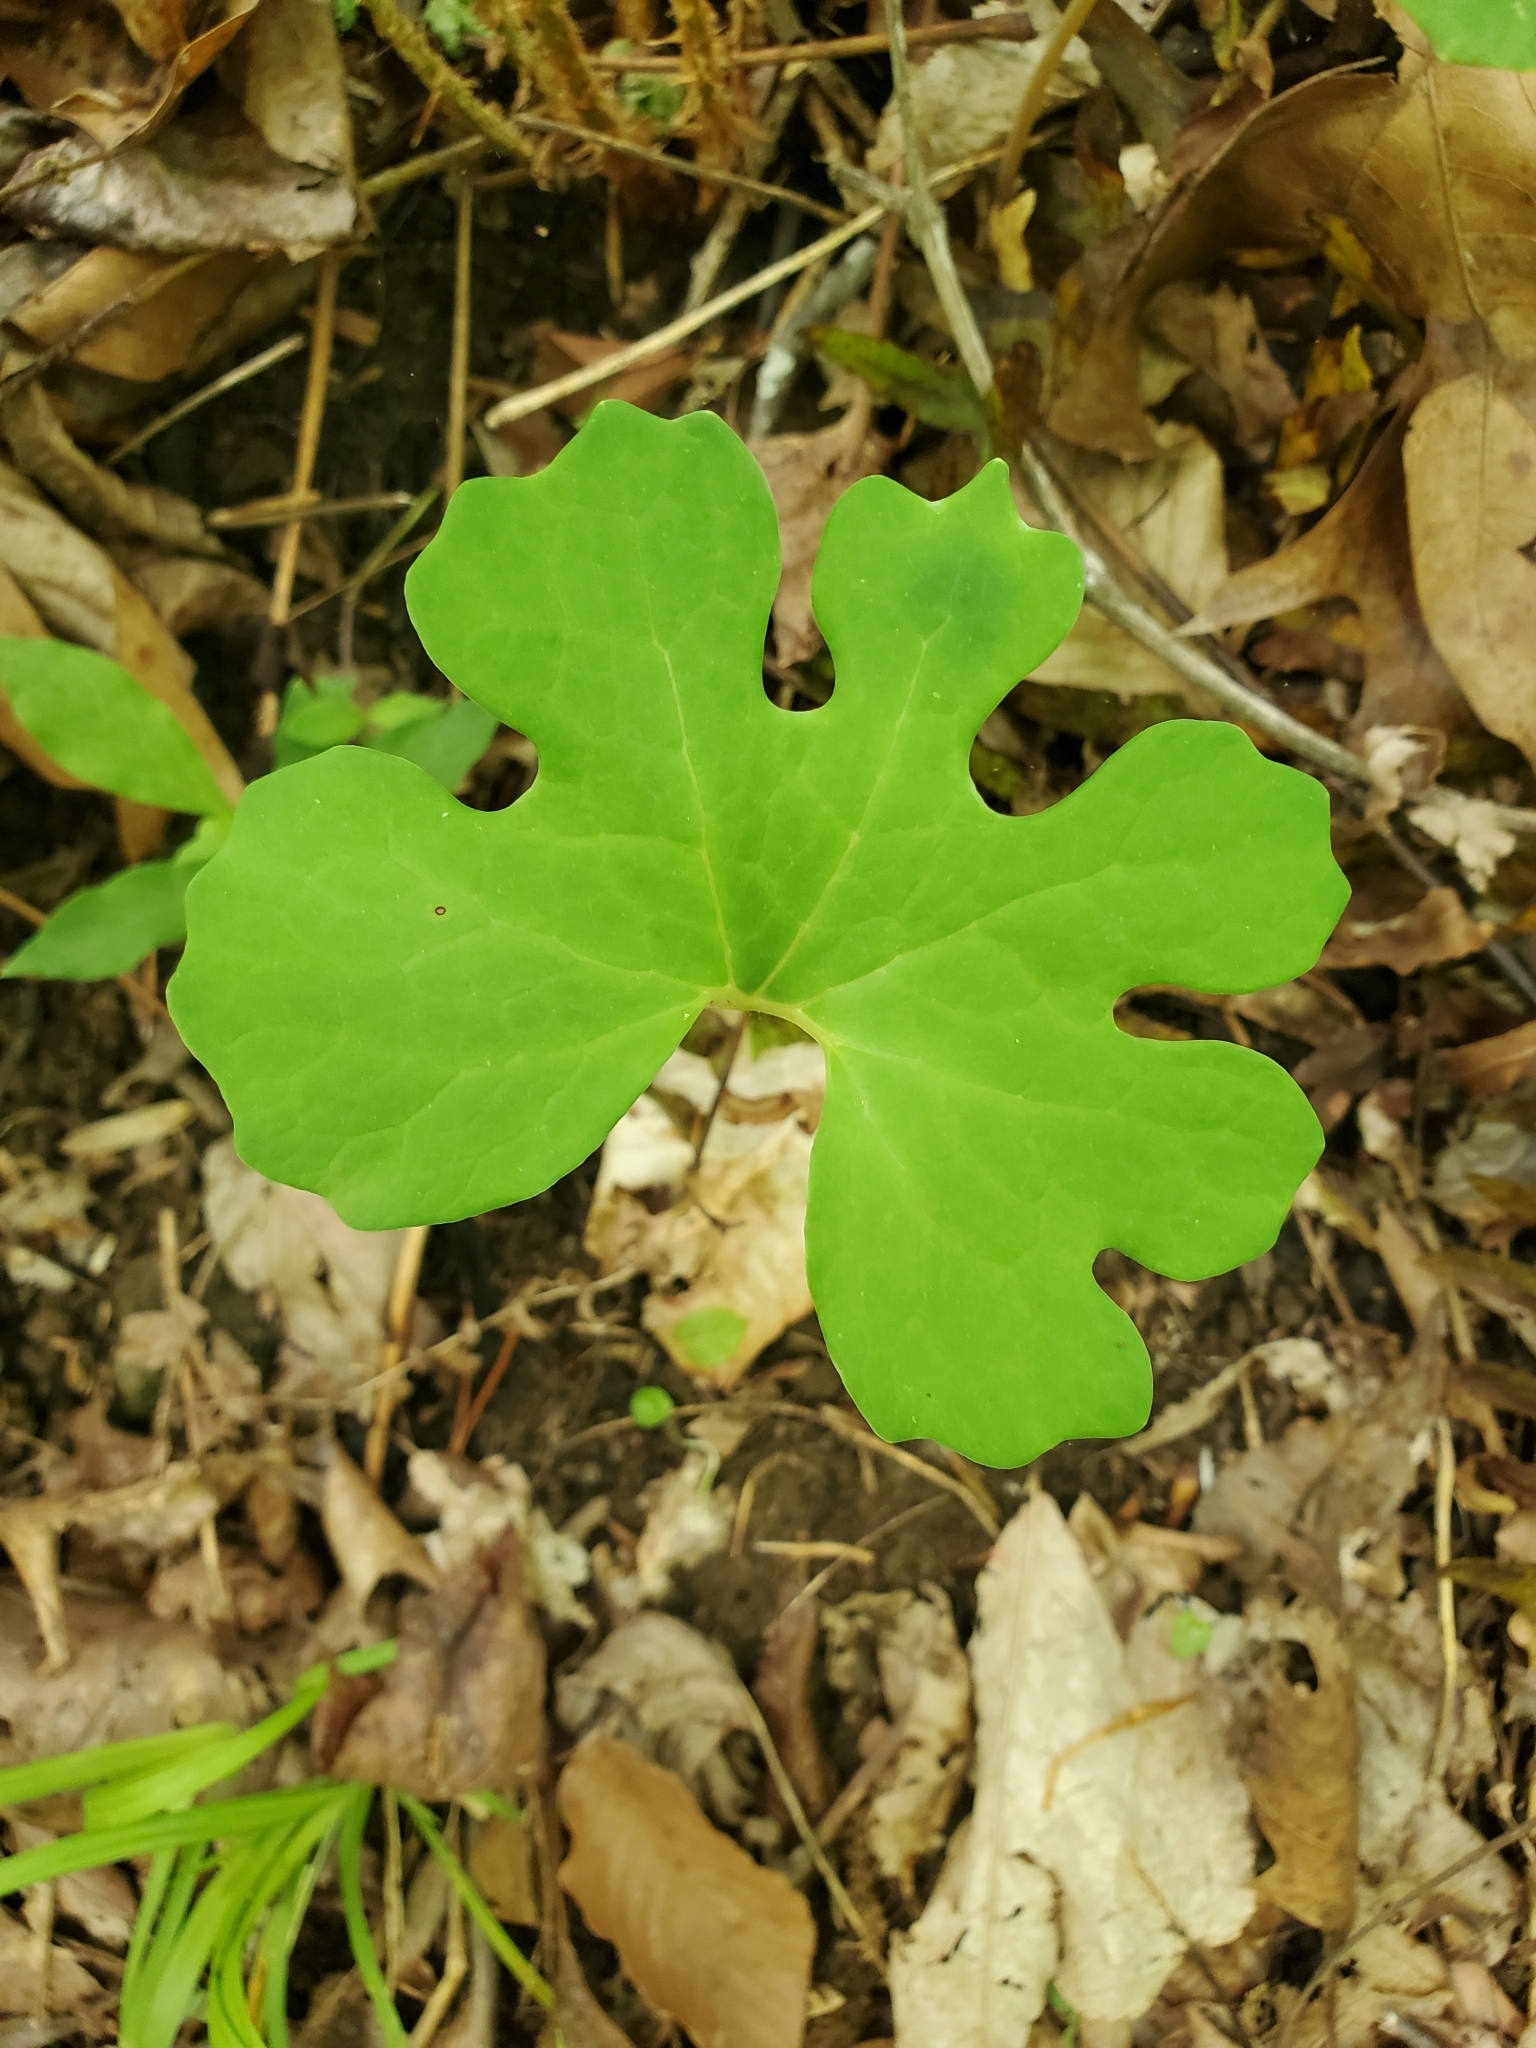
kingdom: Plantae
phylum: Tracheophyta
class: Magnoliopsida
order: Ranunculales
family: Papaveraceae
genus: Sanguinaria
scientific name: Sanguinaria canadensis
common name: Bloodroot
